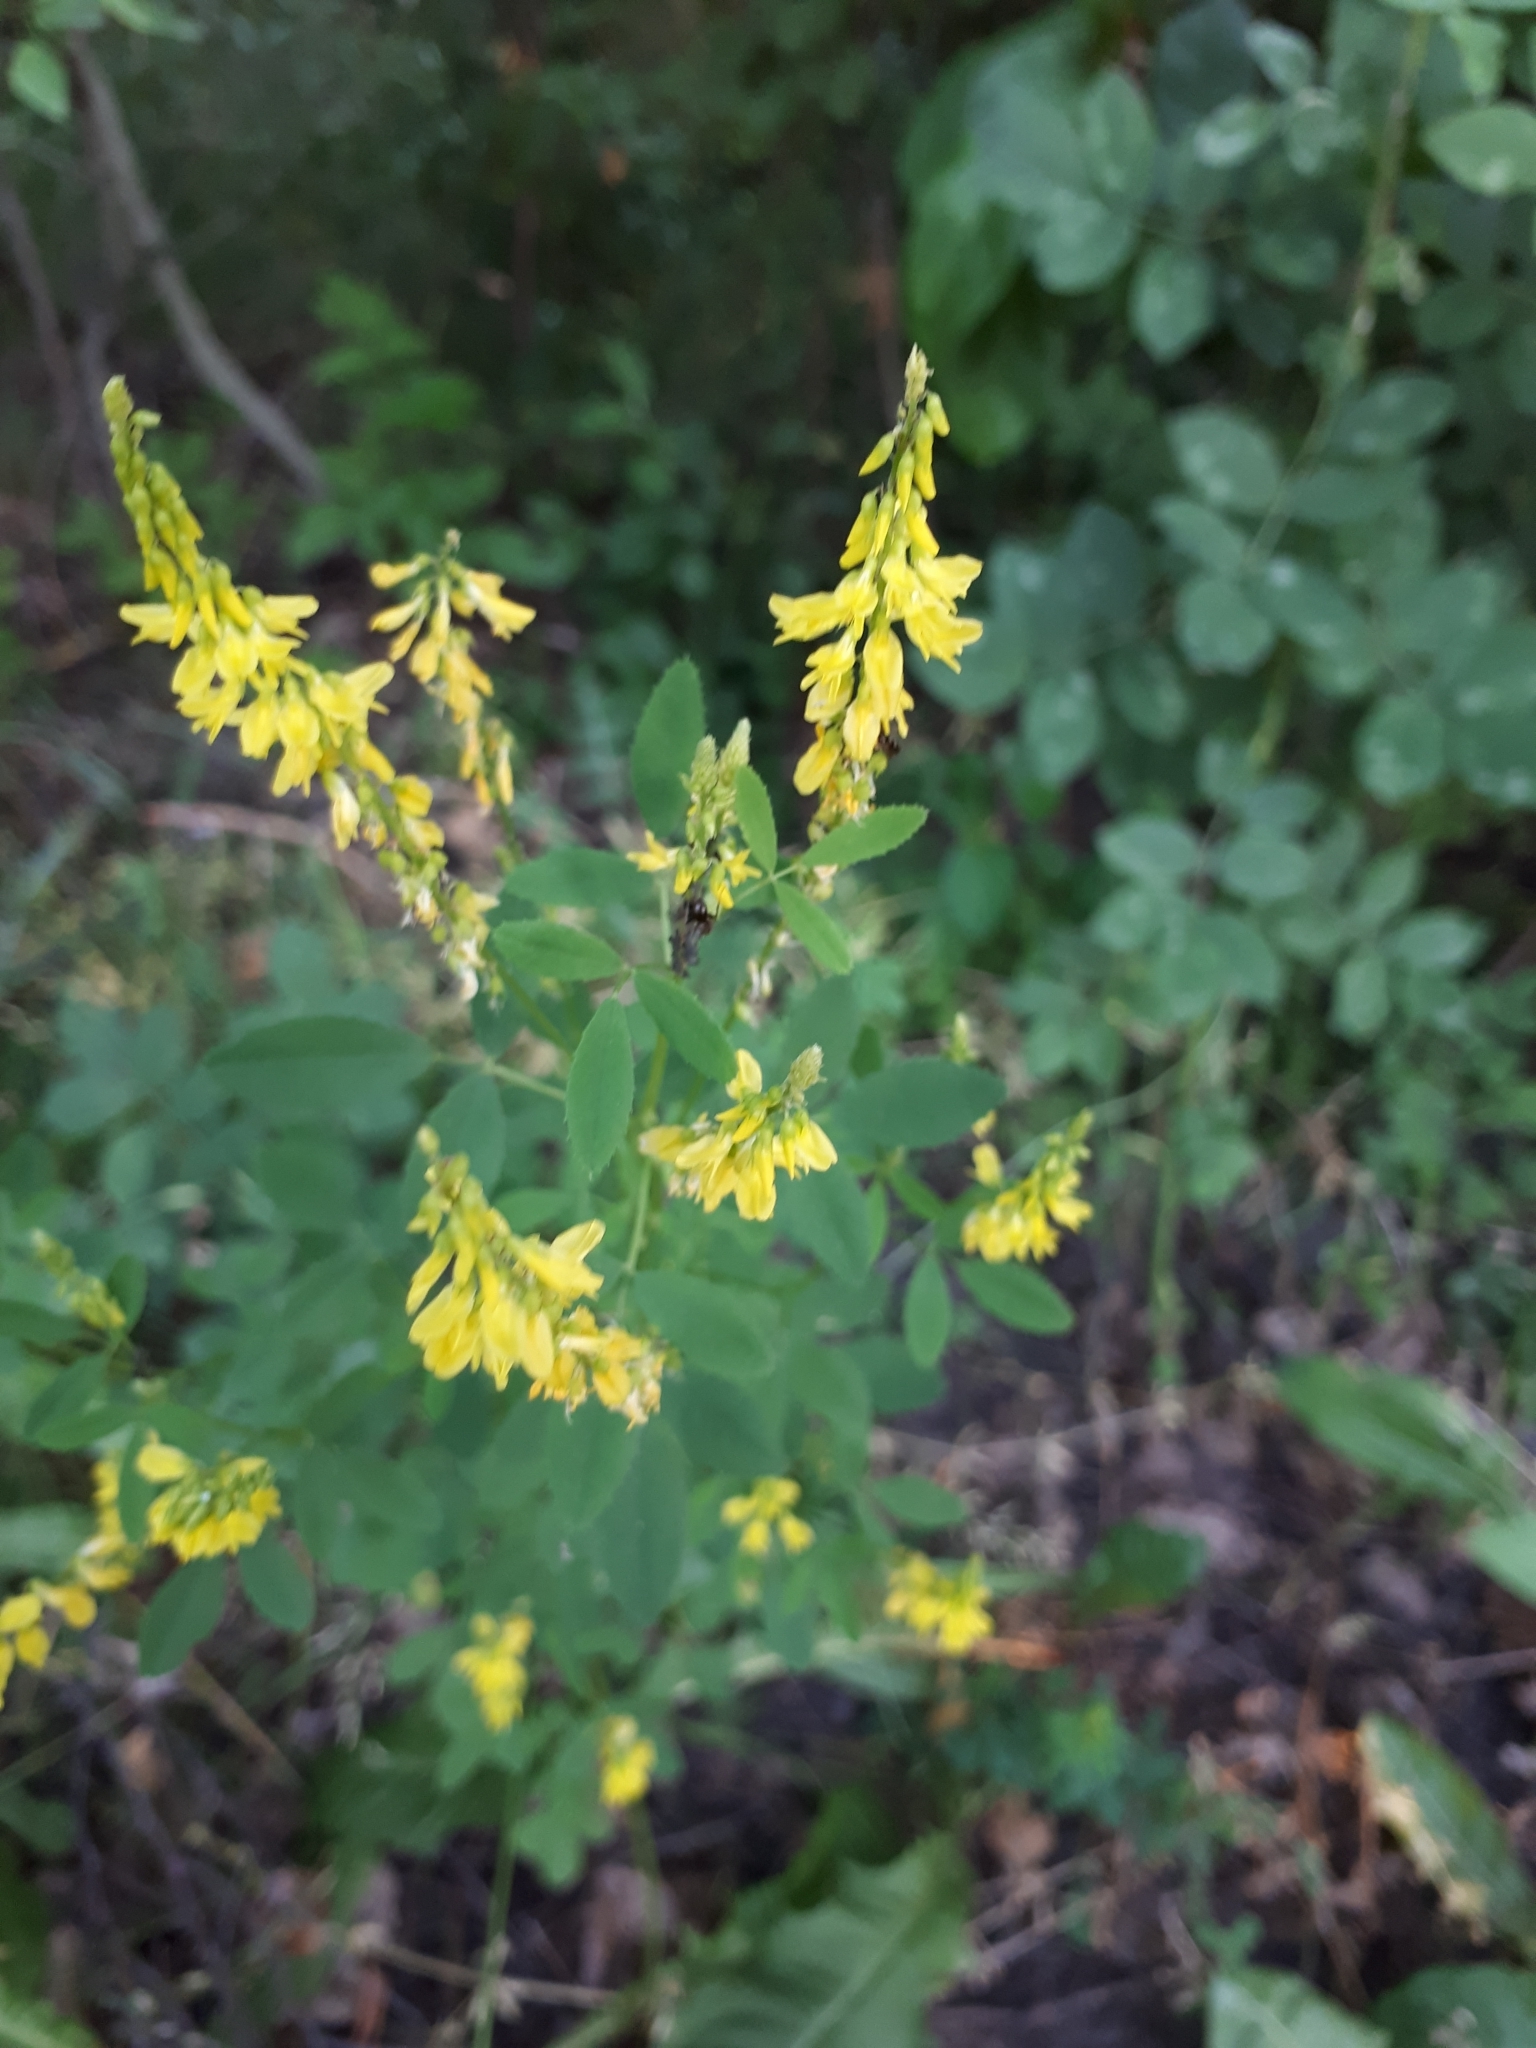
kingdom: Plantae
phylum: Tracheophyta
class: Magnoliopsida
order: Fabales
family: Fabaceae
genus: Melilotus
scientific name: Melilotus officinalis
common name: Sweetclover
